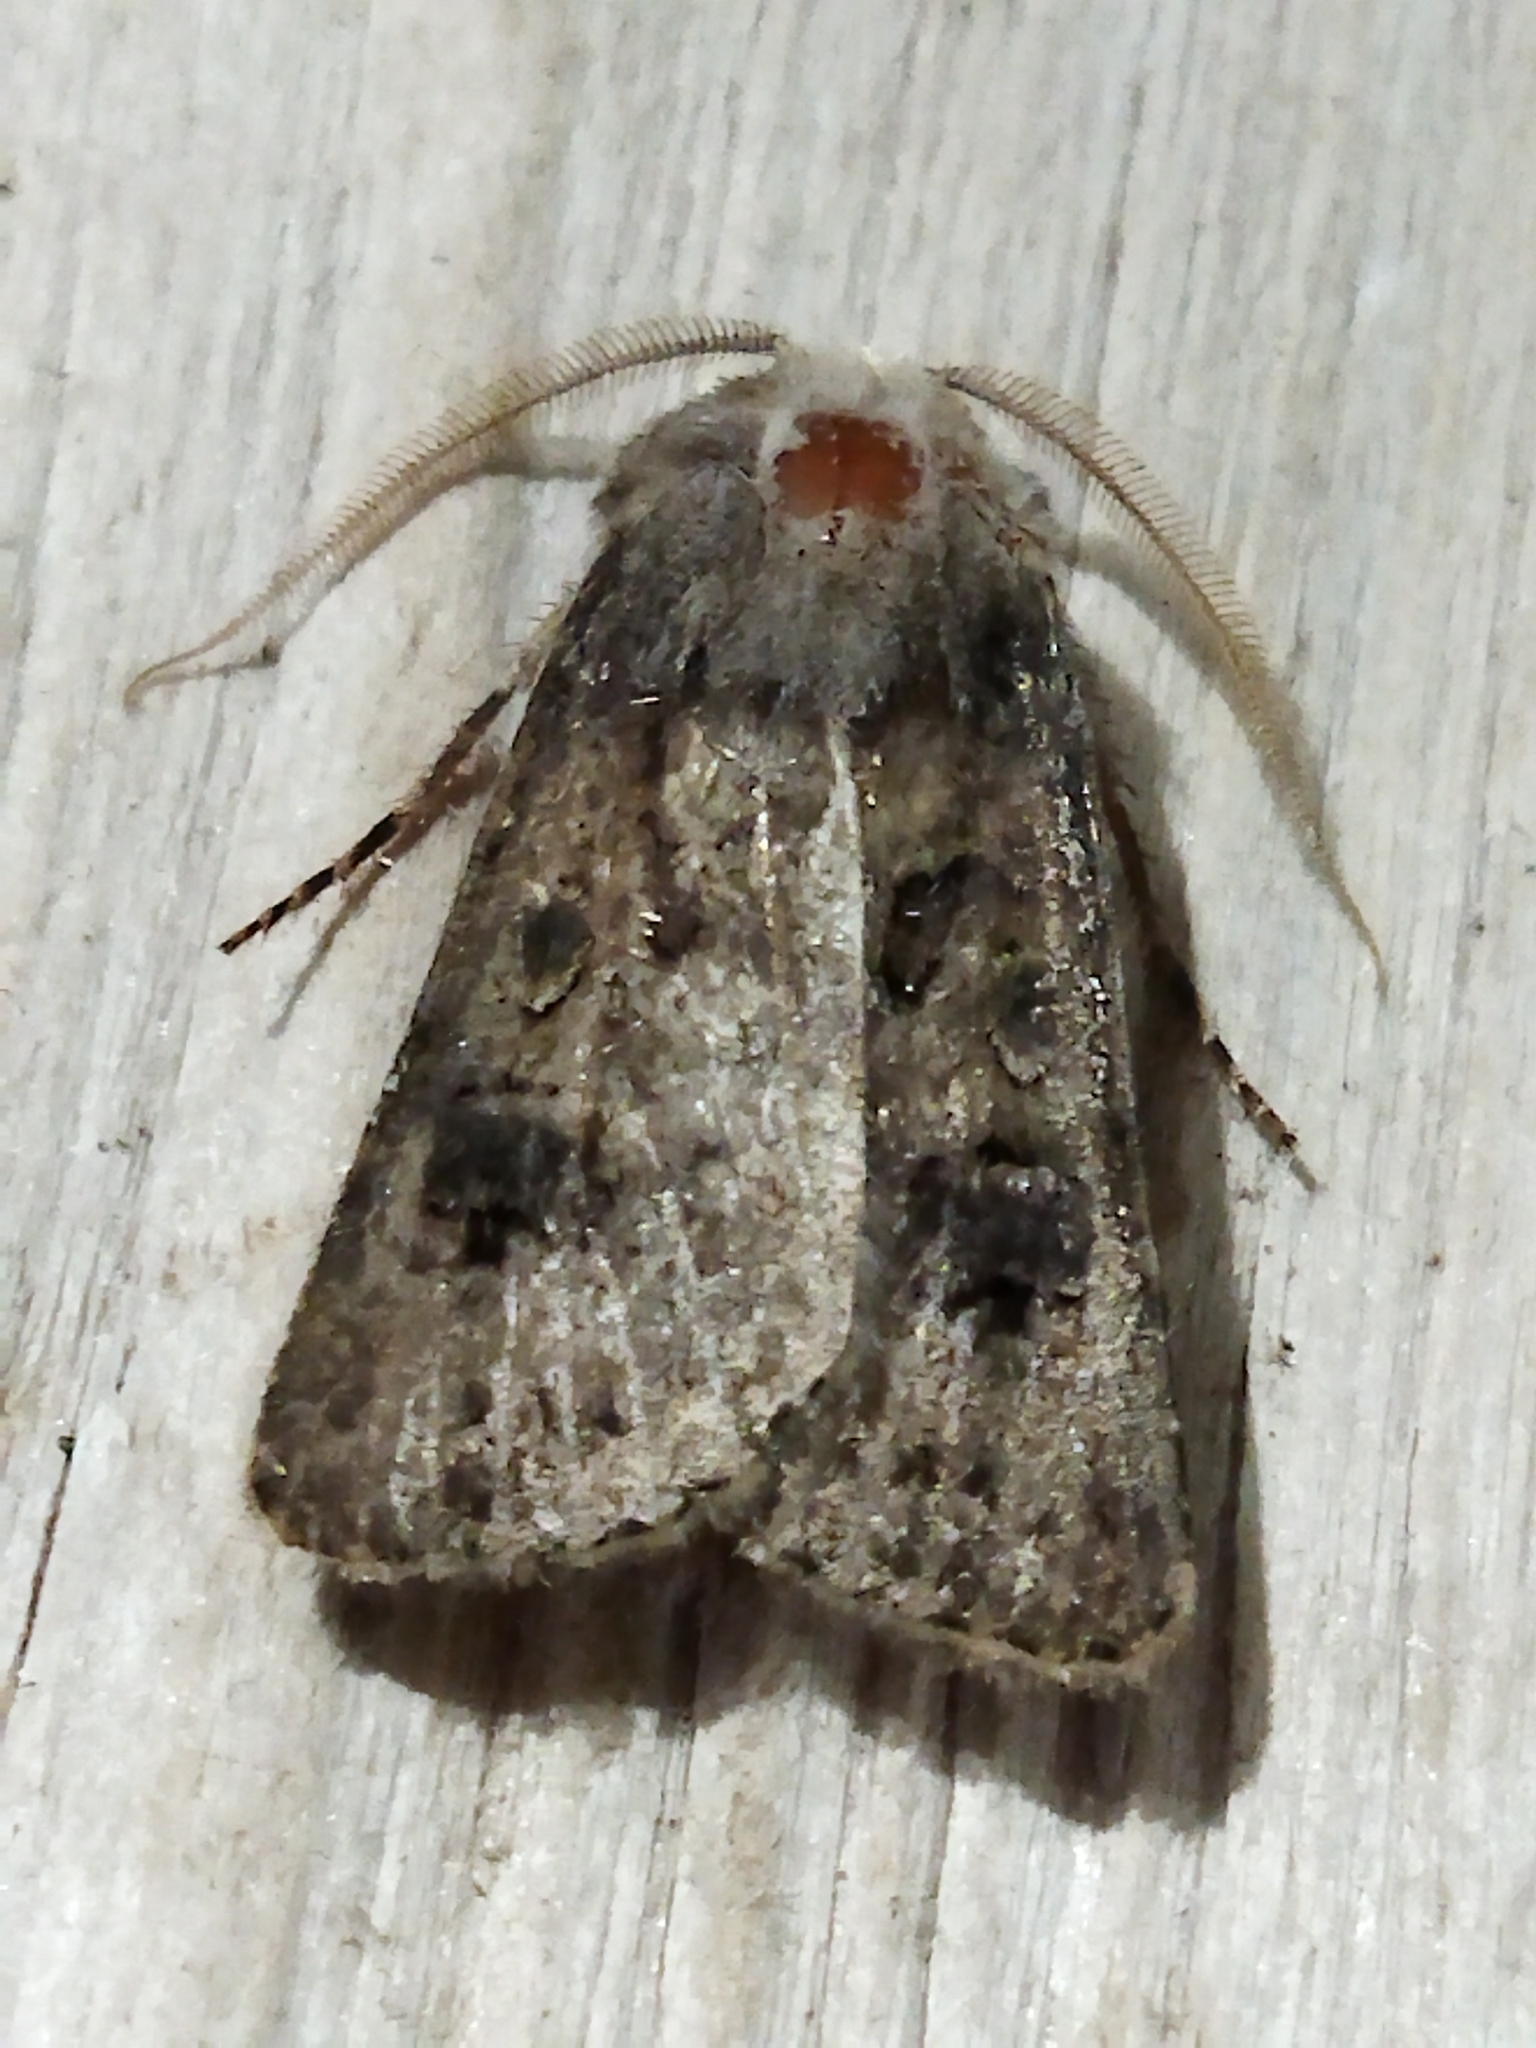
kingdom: Animalia
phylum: Arthropoda
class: Insecta
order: Lepidoptera
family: Noctuidae
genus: Agrotis
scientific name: Agrotis bigramma
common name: Great dart
